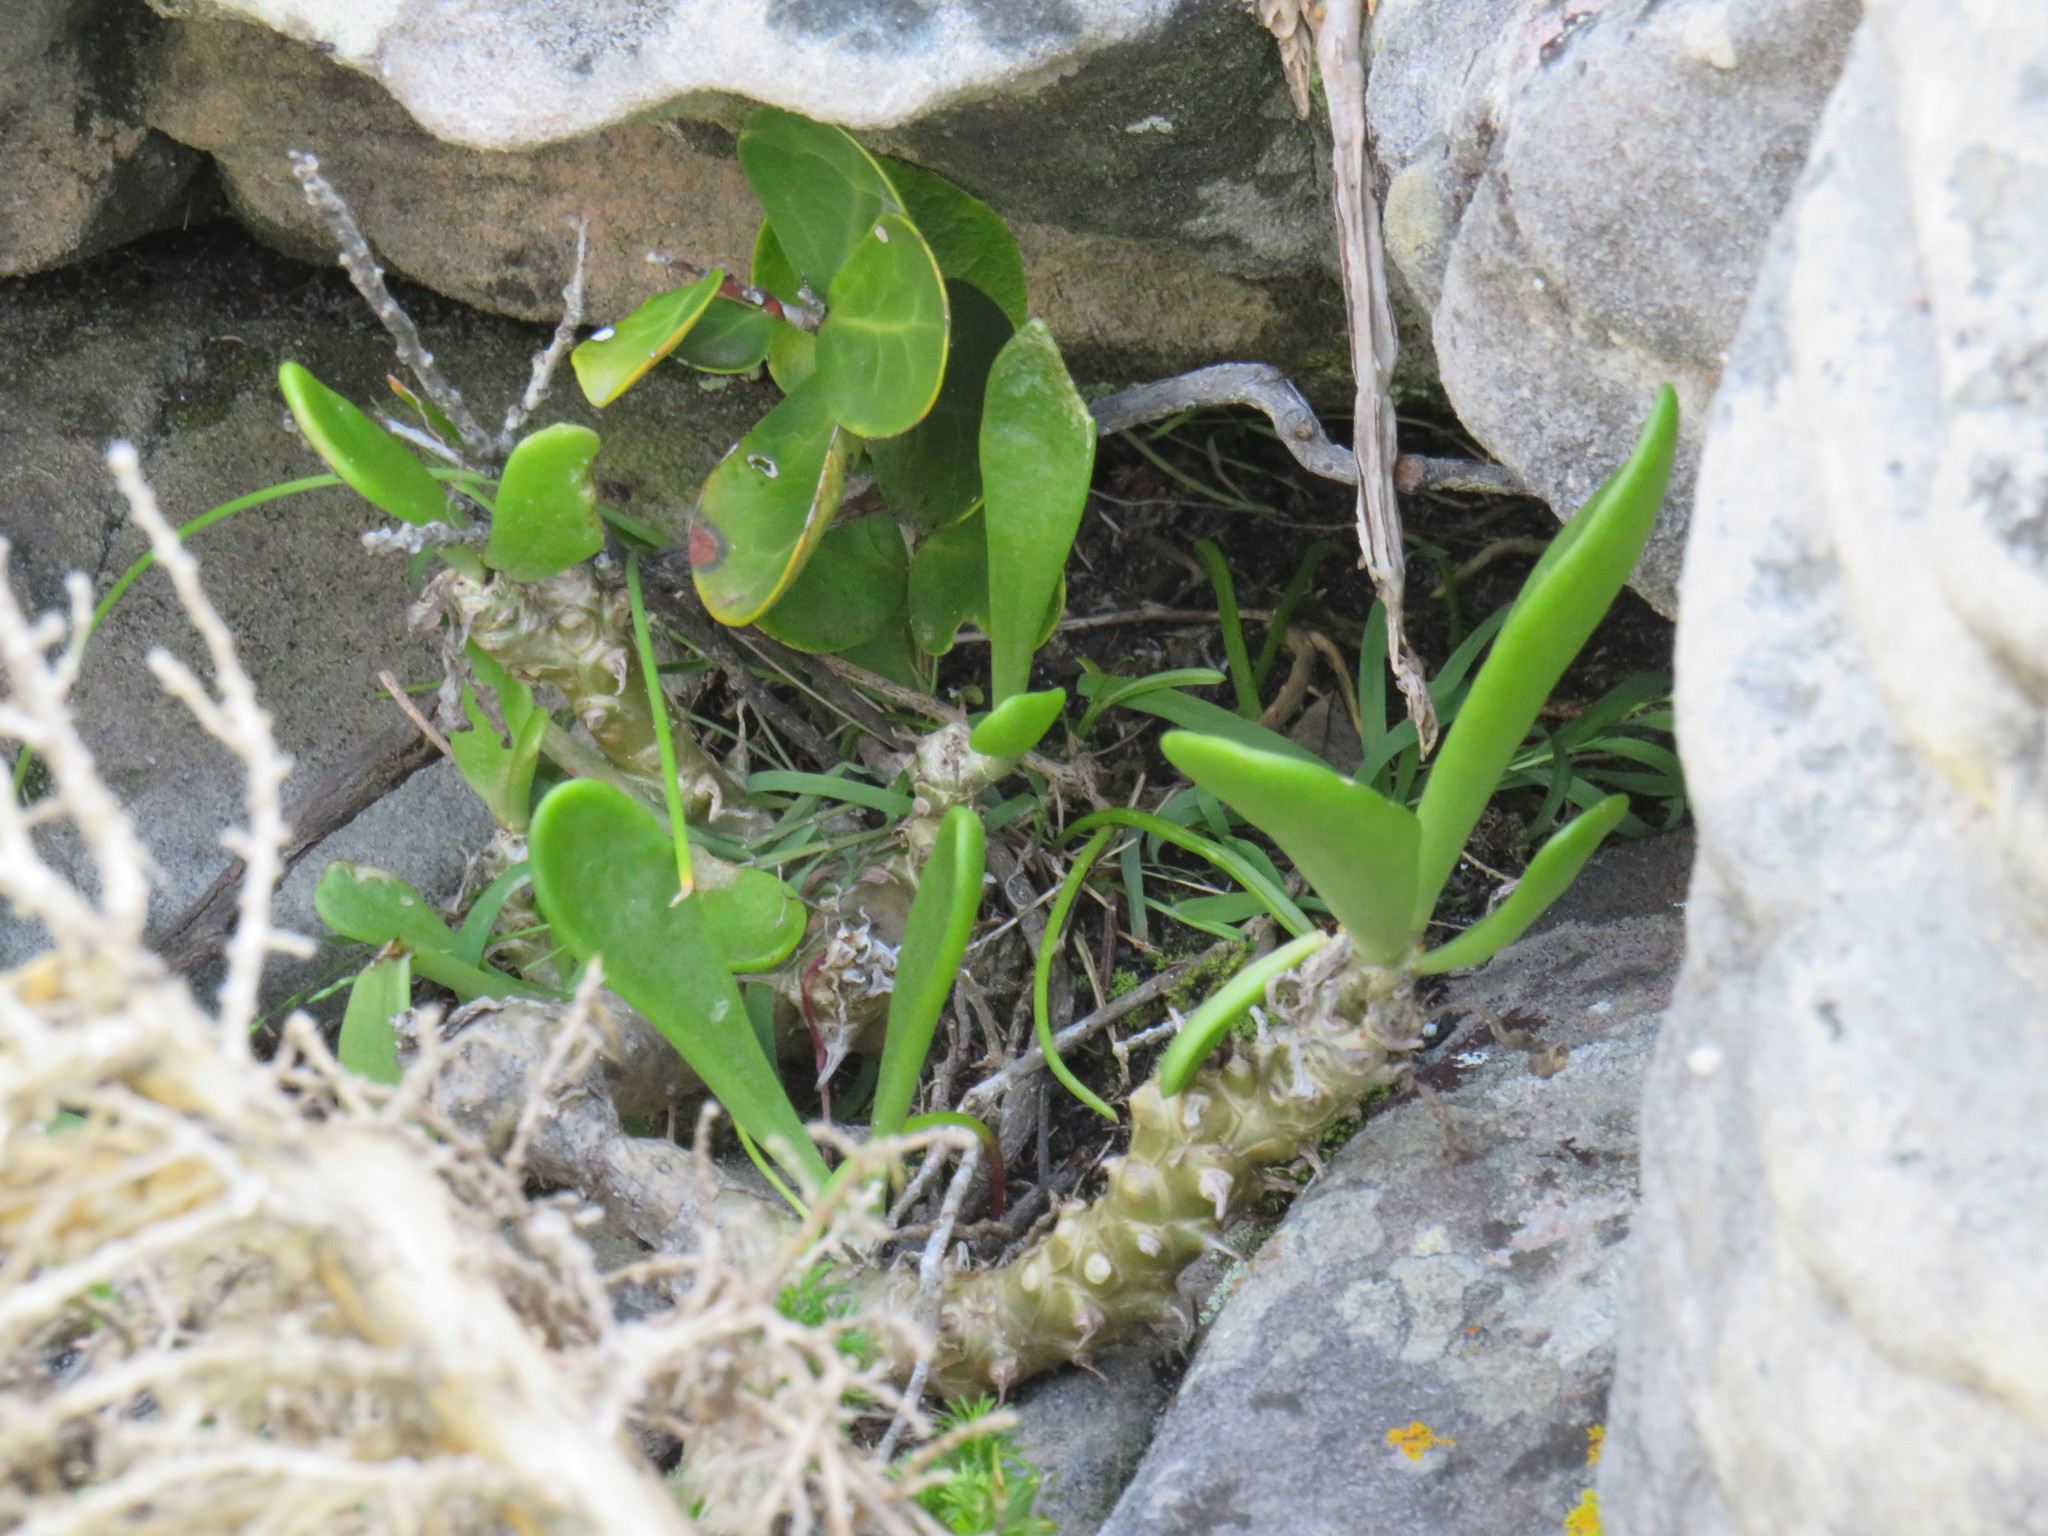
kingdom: Plantae
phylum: Tracheophyta
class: Magnoliopsida
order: Saxifragales
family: Crassulaceae
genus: Tylecodon
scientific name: Tylecodon grandiflorus
